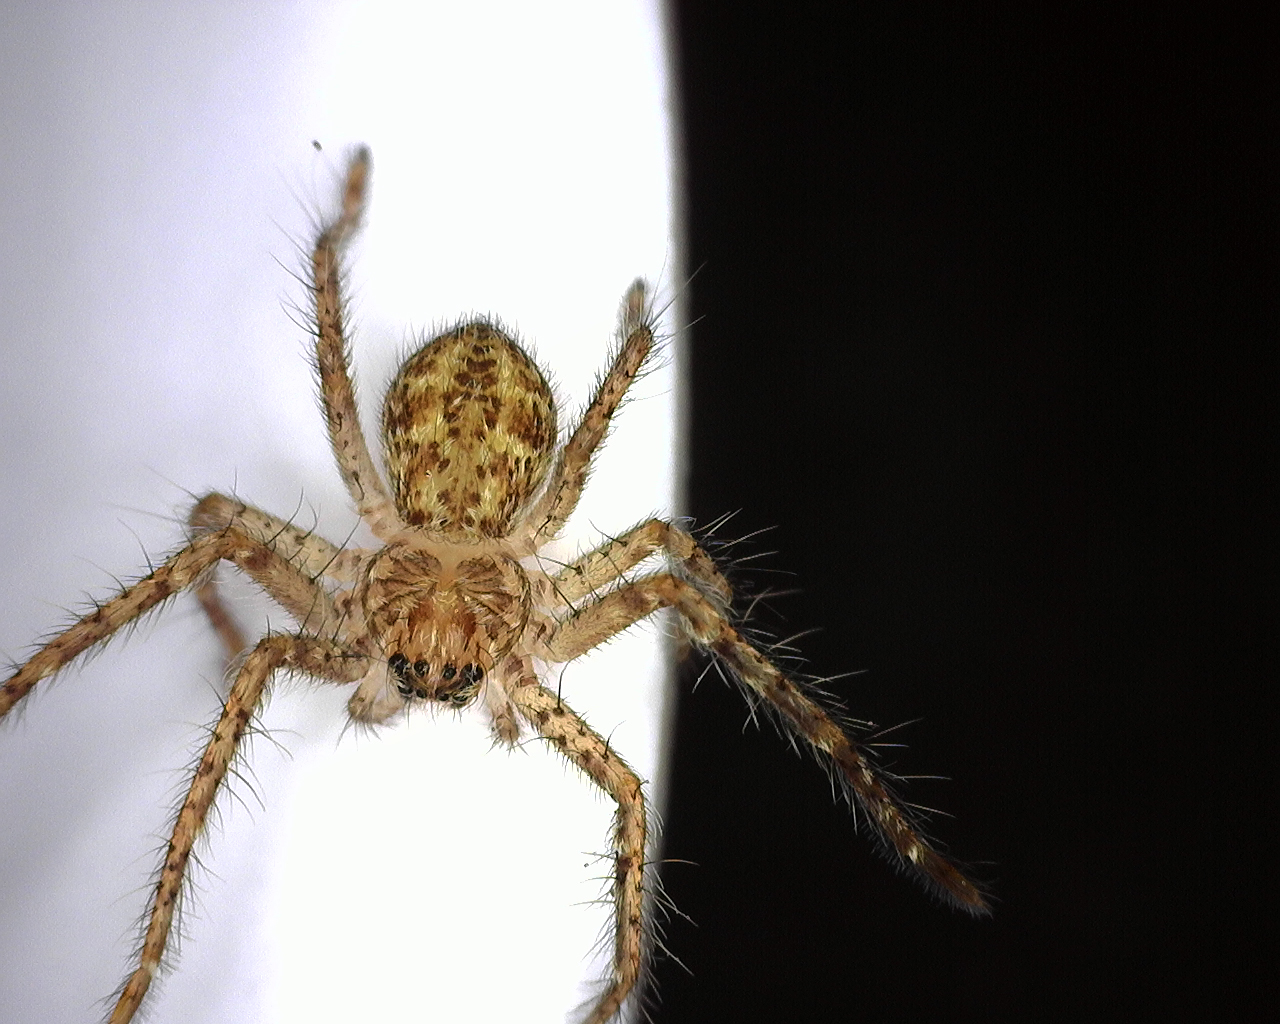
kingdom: Animalia
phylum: Arthropoda
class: Arachnida
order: Araneae
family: Sparassidae
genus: Isopedella
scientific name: Isopedella victorialis
